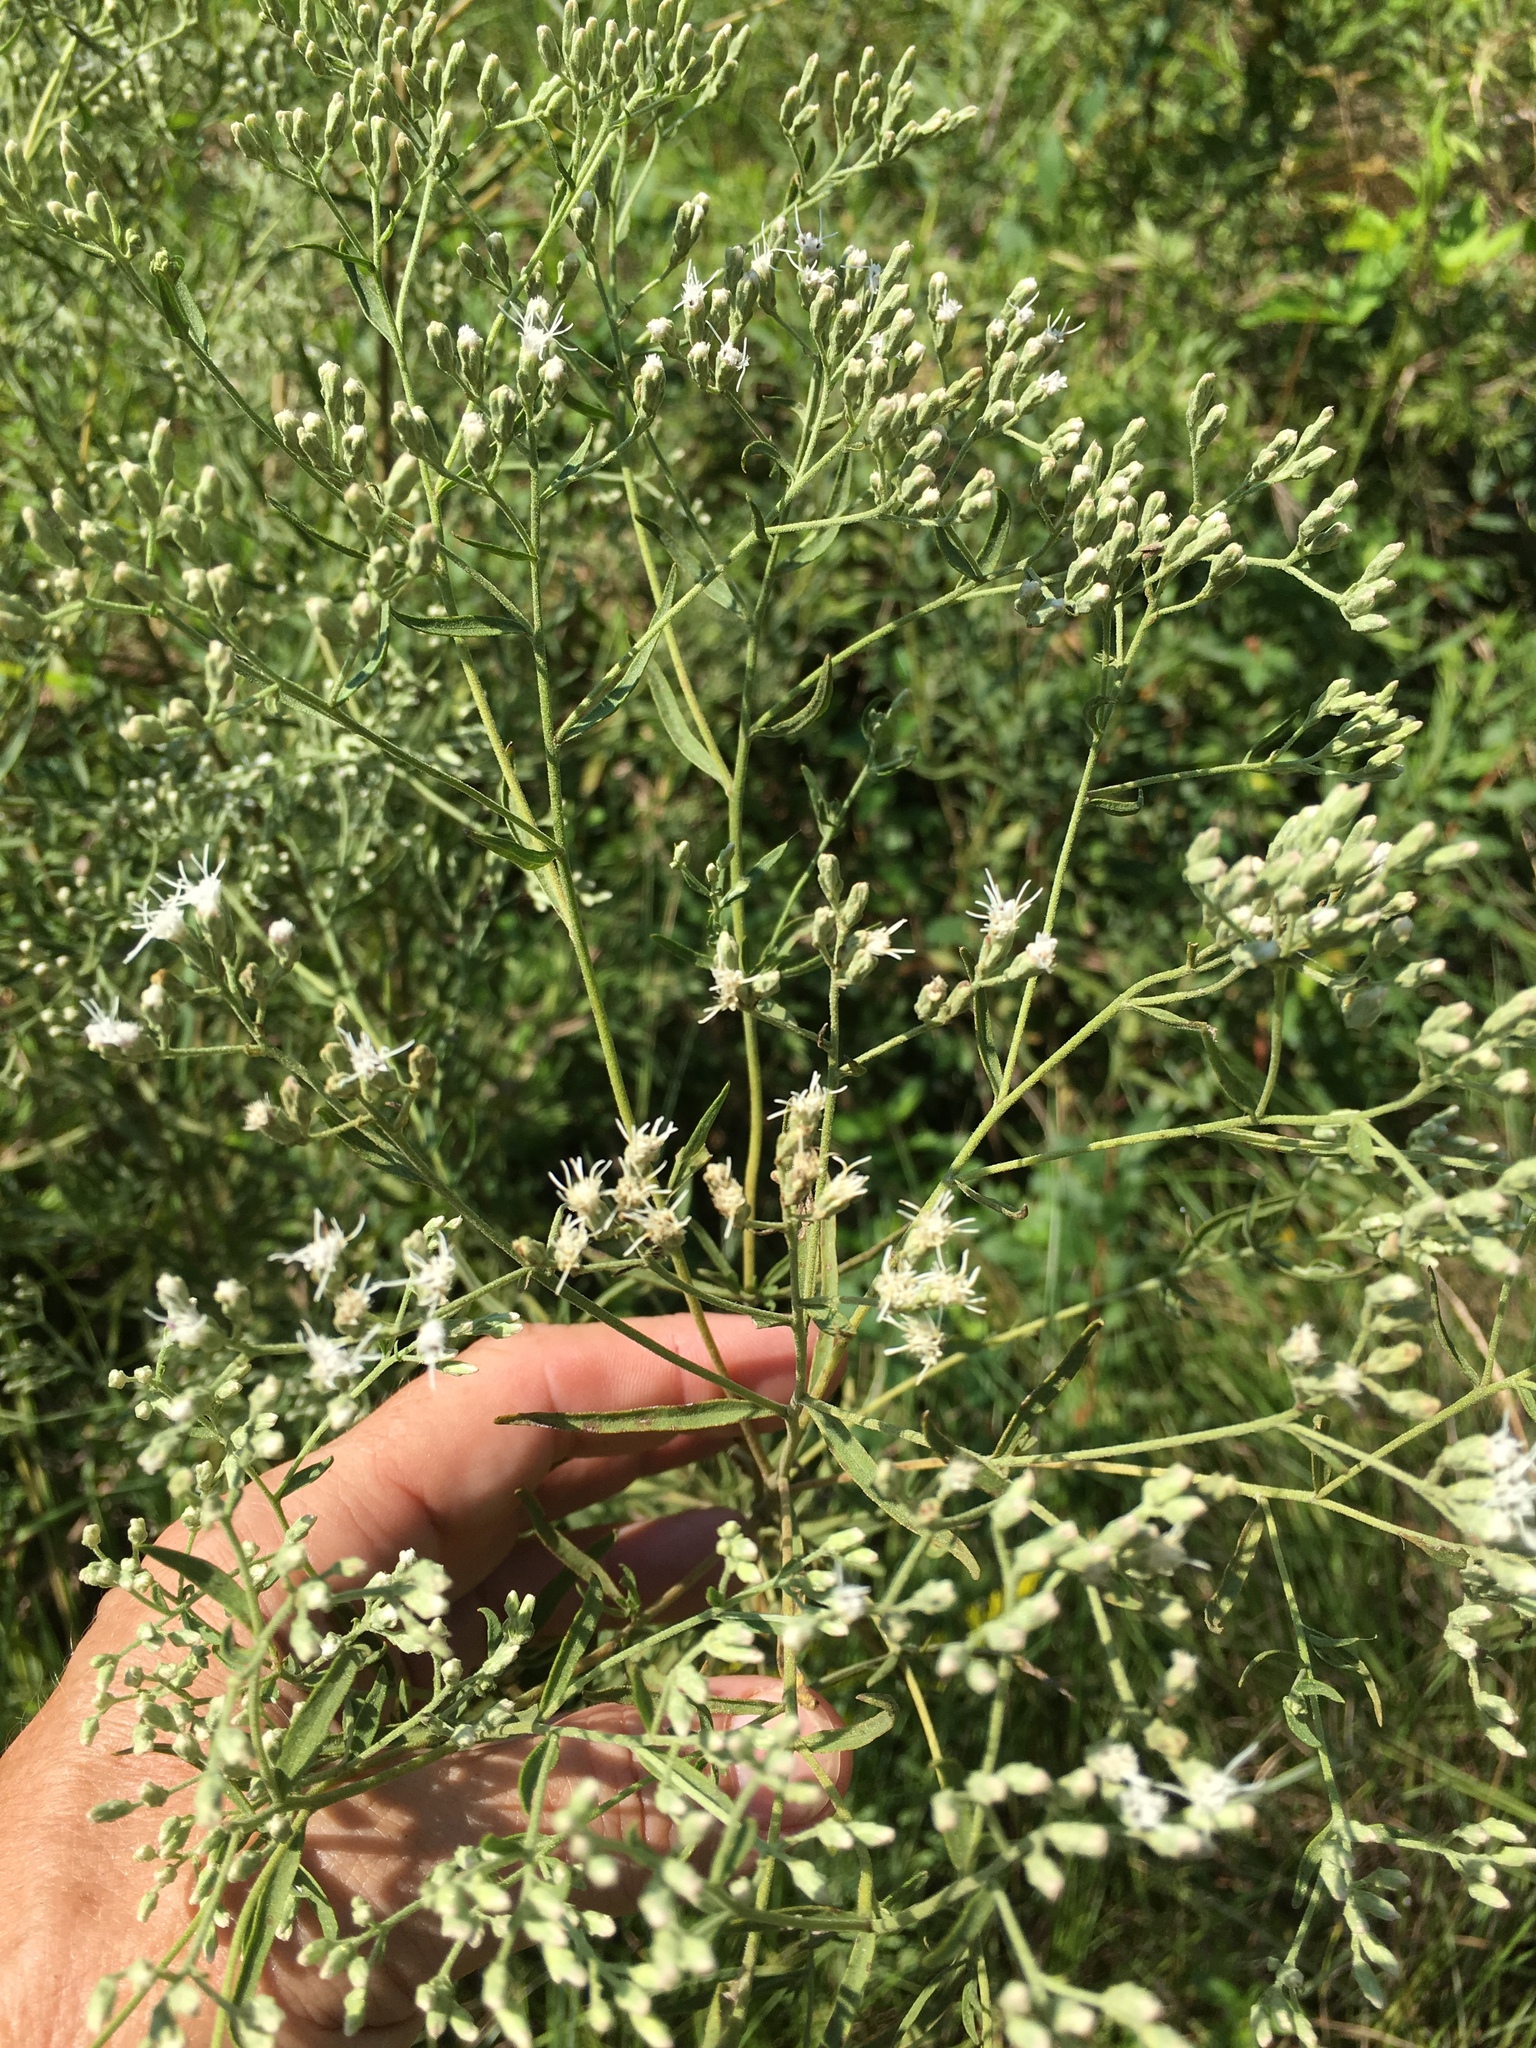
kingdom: Plantae
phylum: Tracheophyta
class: Magnoliopsida
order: Asterales
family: Asteraceae
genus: Eupatorium
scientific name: Eupatorium hyssopifolium
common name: Hyssop-leaf thoroughwort
